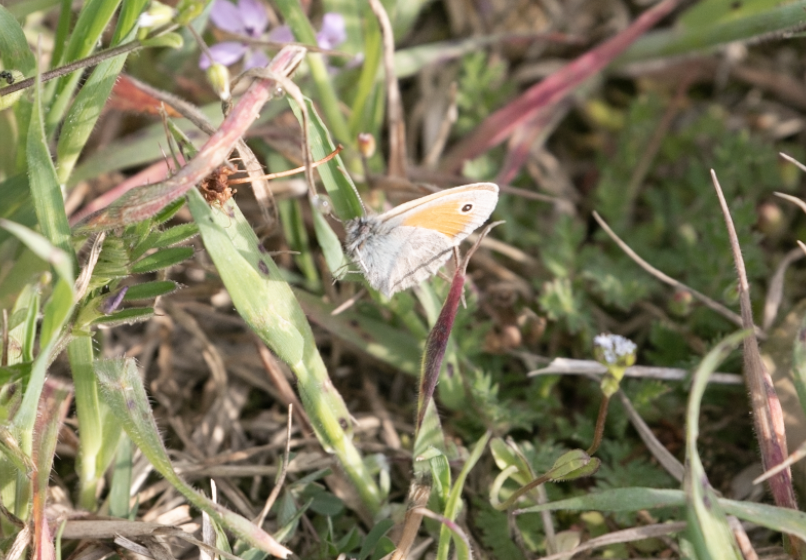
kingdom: Animalia
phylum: Arthropoda
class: Insecta
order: Lepidoptera
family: Nymphalidae
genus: Coenonympha
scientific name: Coenonympha pamphilus
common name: Small heath
